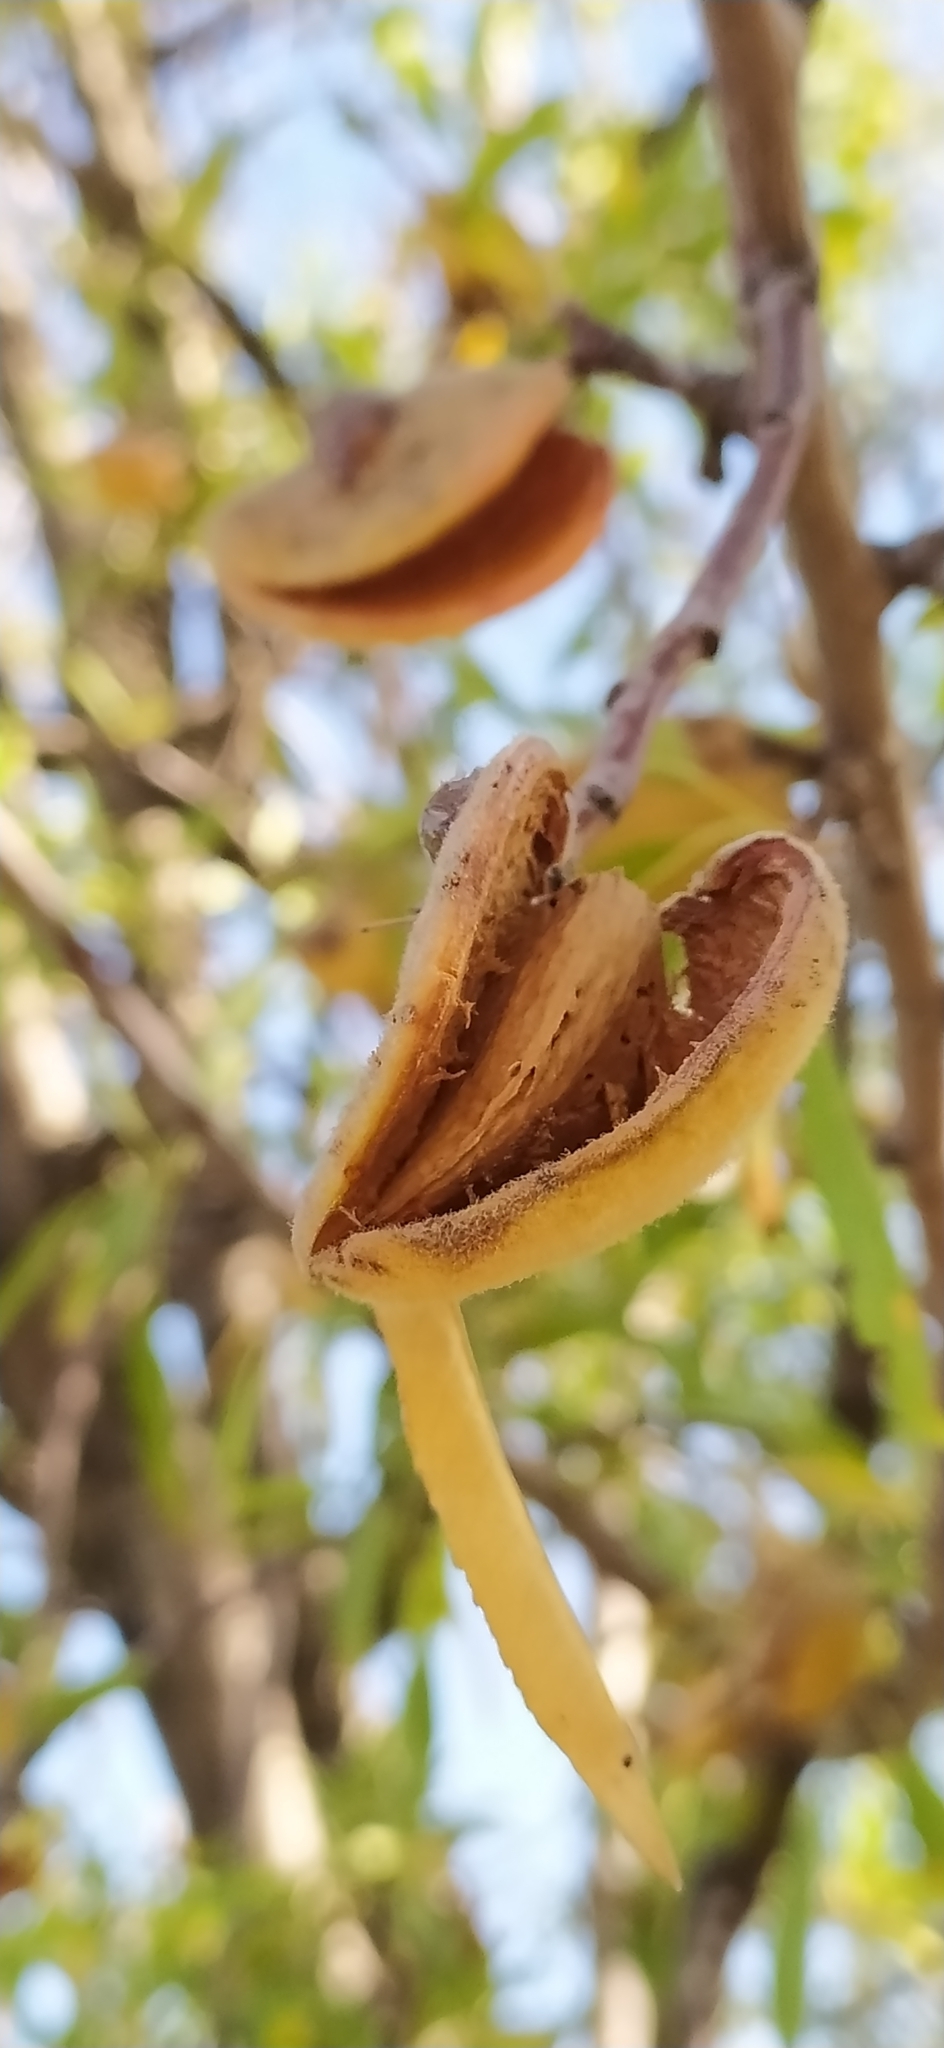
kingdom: Plantae
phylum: Tracheophyta
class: Magnoliopsida
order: Rosales
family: Rosaceae
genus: Prunus
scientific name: Prunus amygdalus
